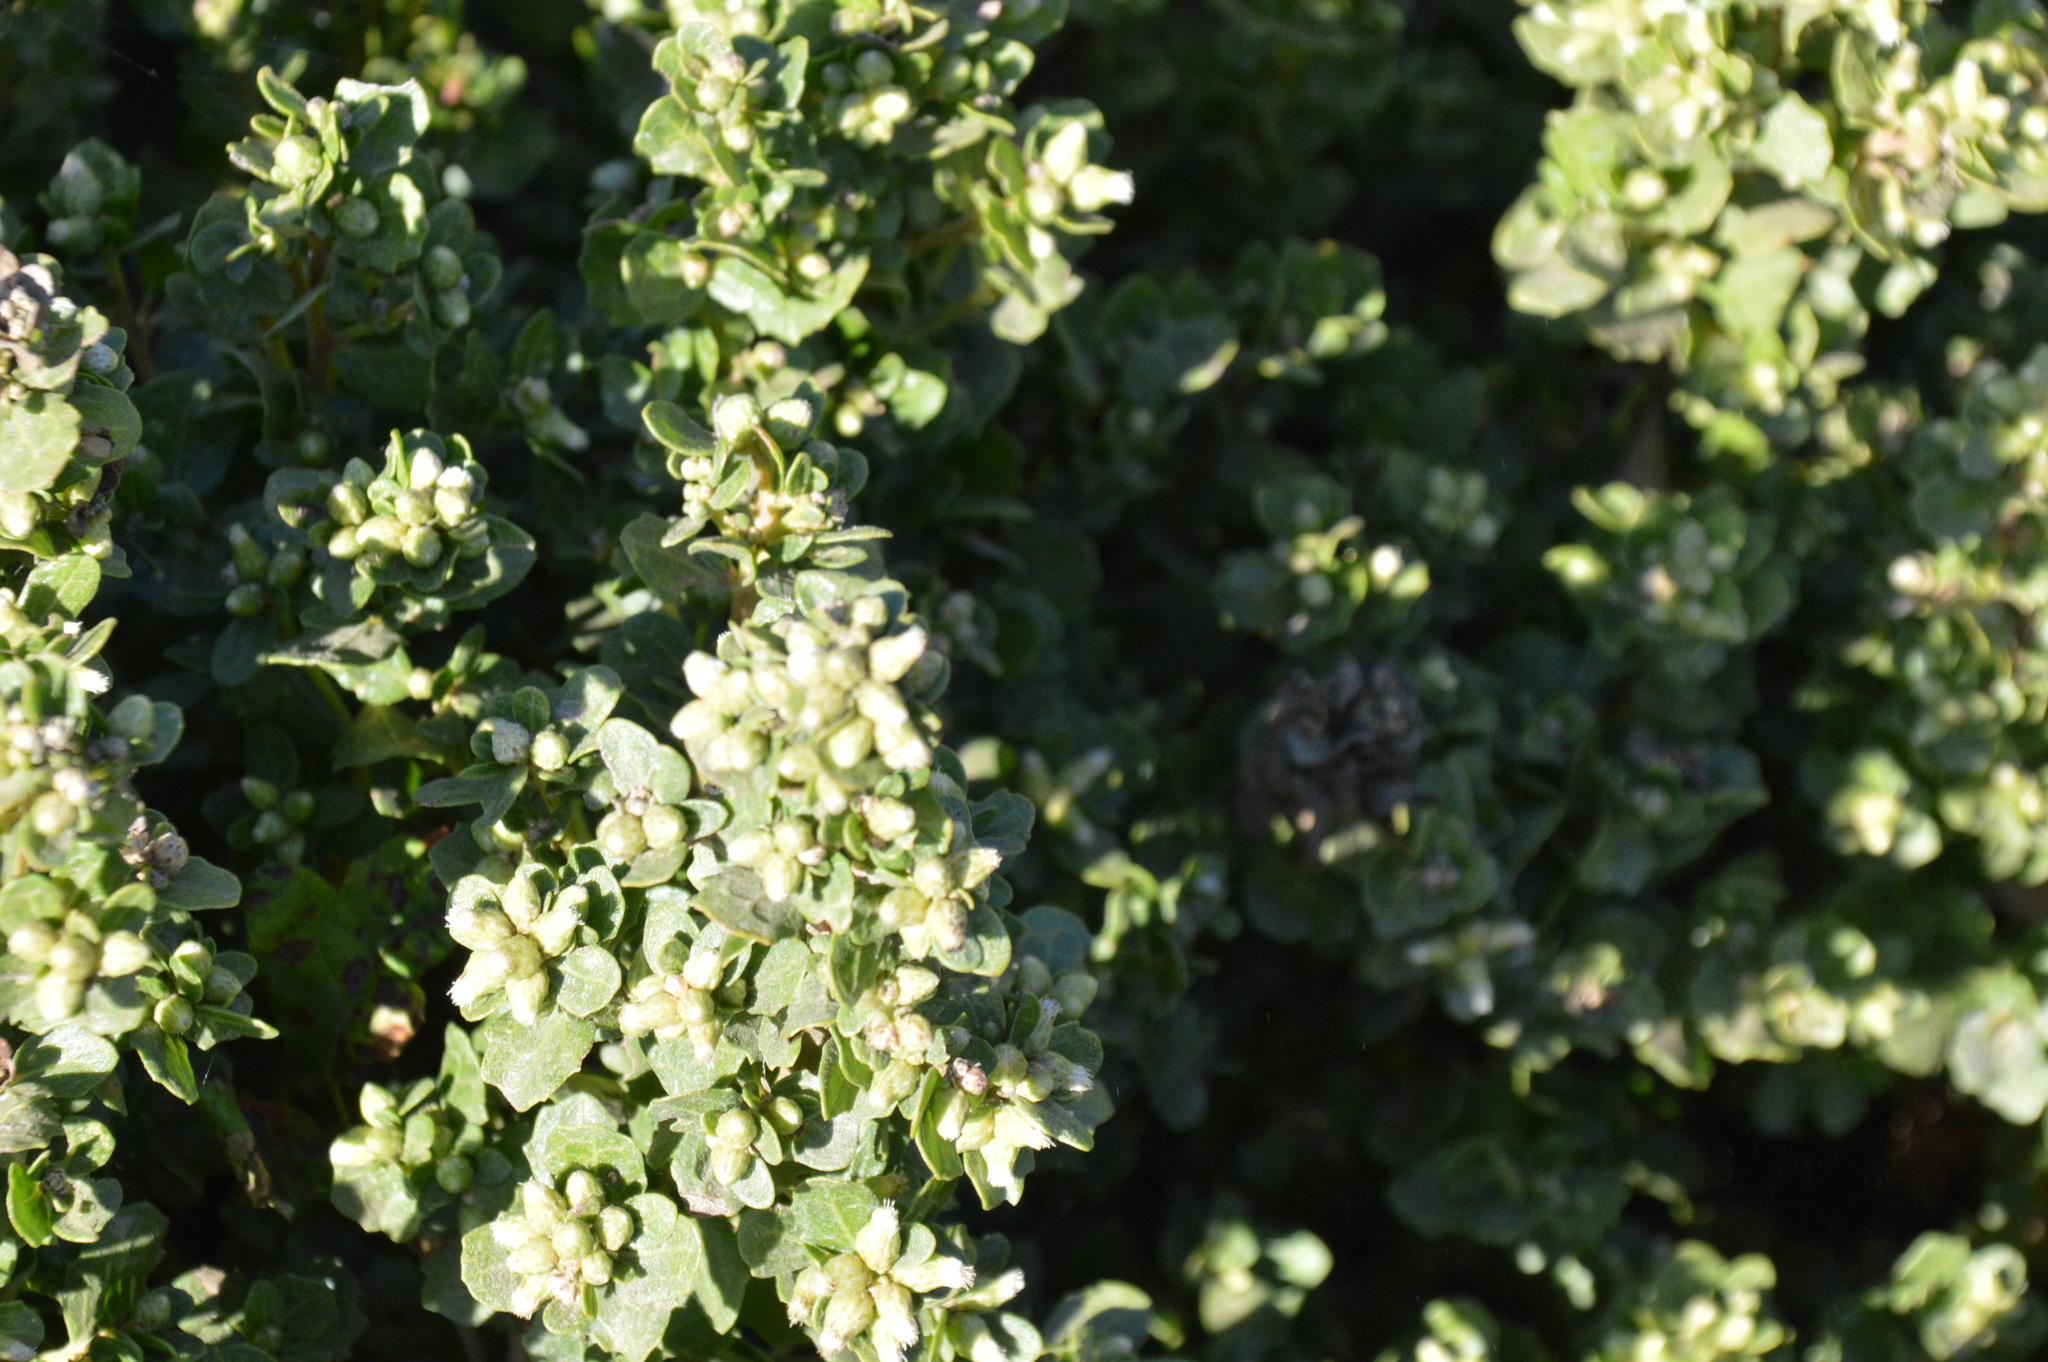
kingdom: Plantae
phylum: Tracheophyta
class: Magnoliopsida
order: Asterales
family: Asteraceae
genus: Baccharis
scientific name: Baccharis pilularis
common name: Coyotebrush
